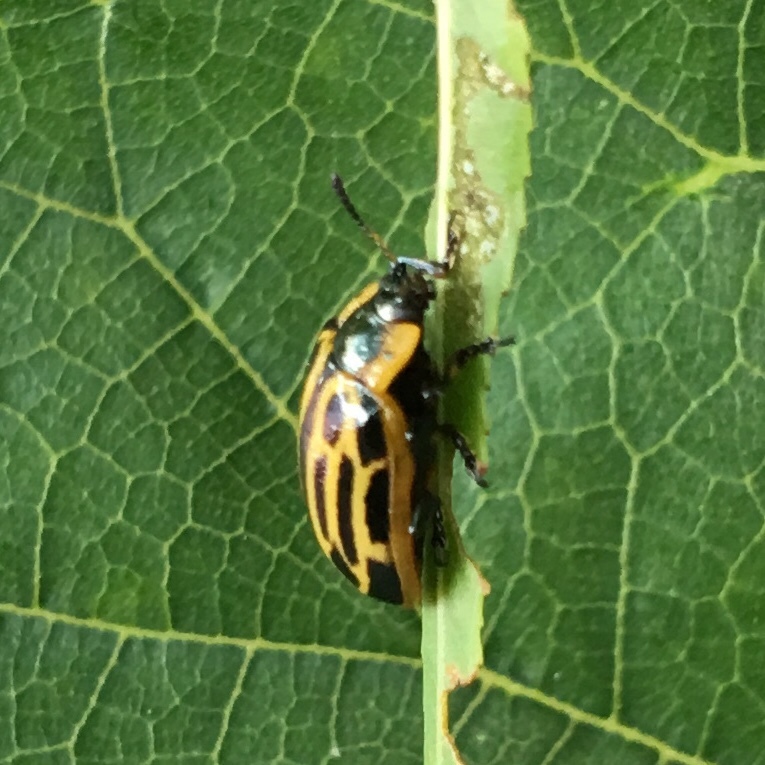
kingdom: Animalia
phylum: Arthropoda
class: Insecta
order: Coleoptera
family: Chrysomelidae
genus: Aethiopocassis
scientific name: Aethiopocassis scripta
